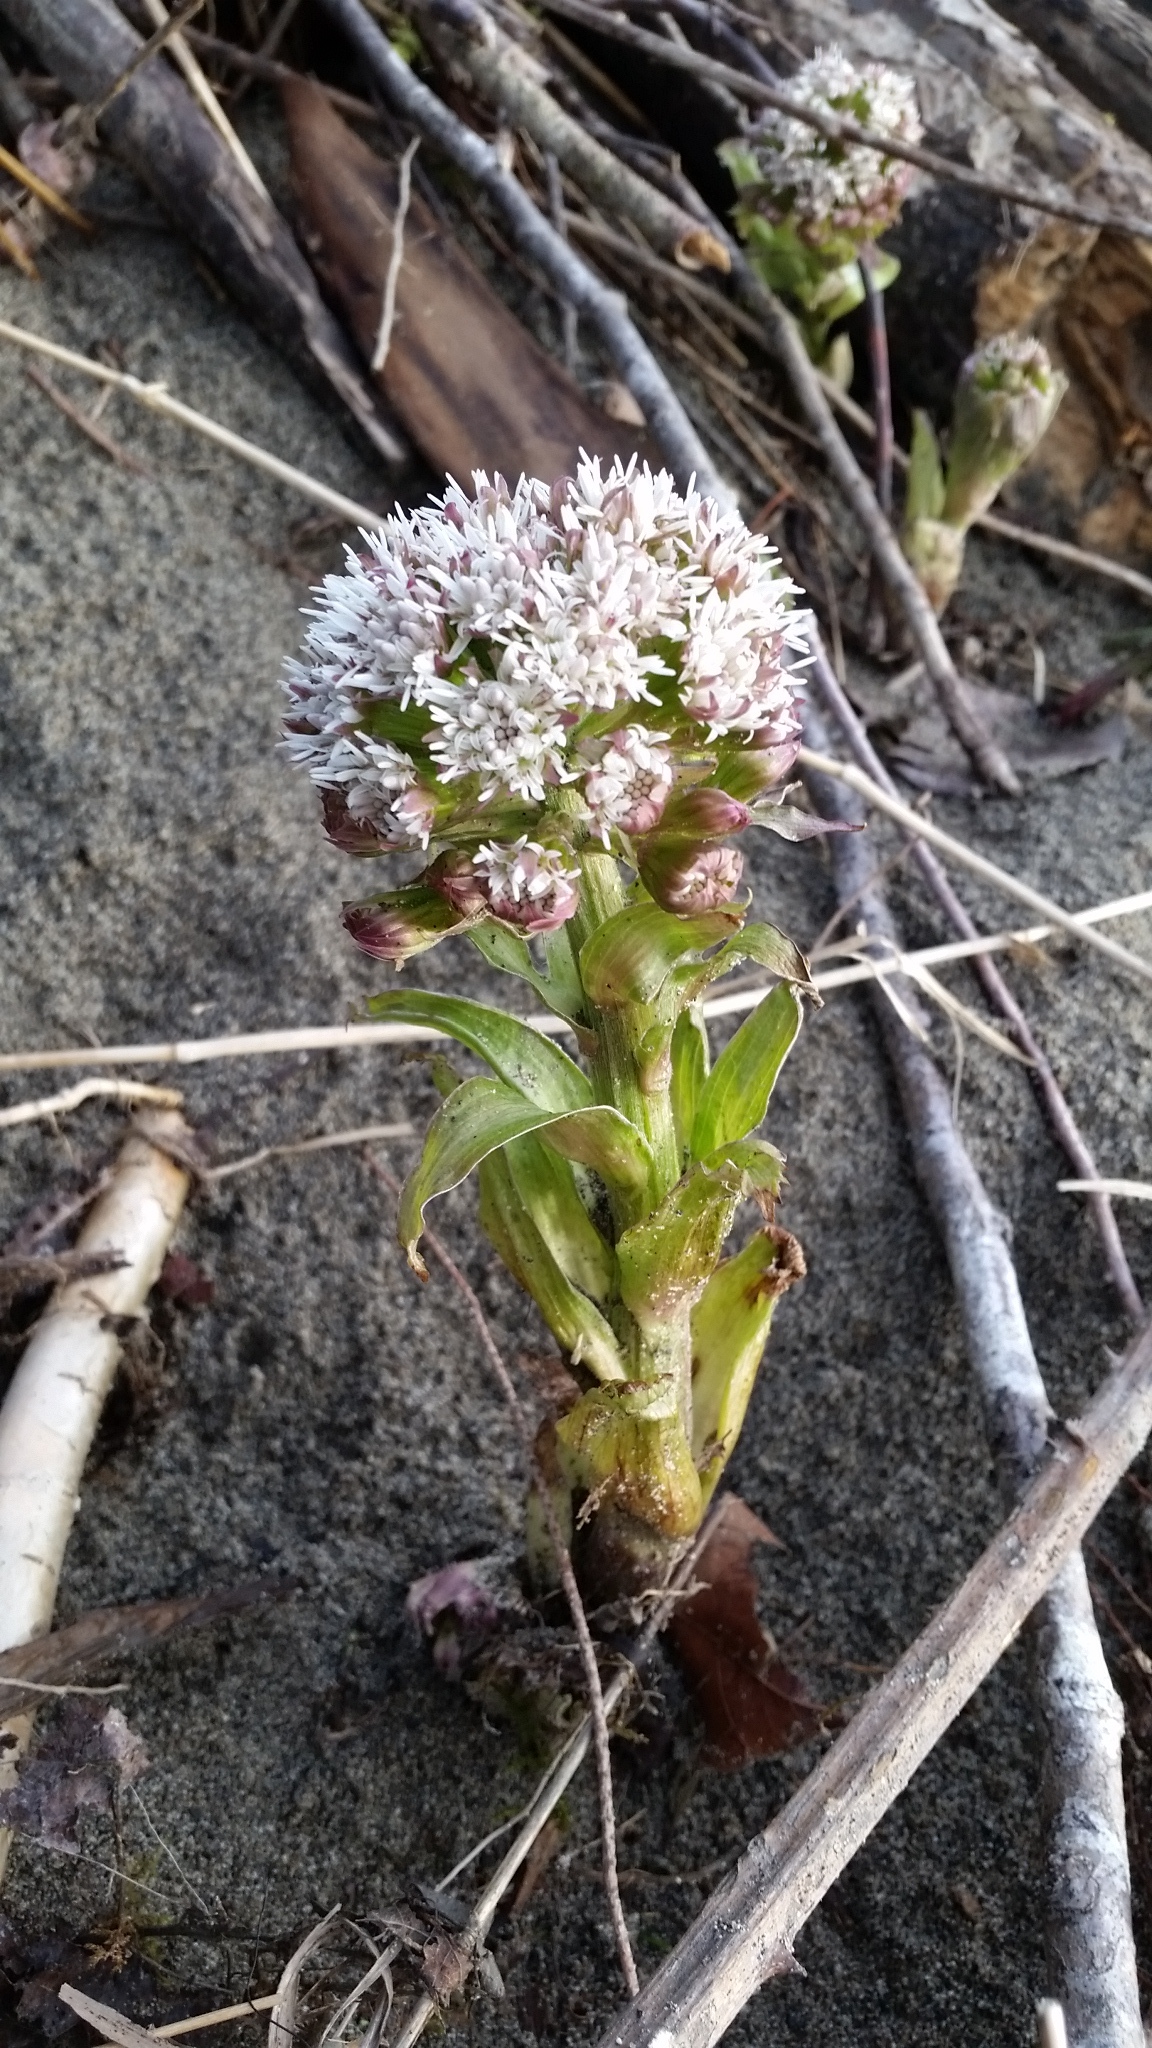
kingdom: Plantae
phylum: Tracheophyta
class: Magnoliopsida
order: Asterales
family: Asteraceae
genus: Petasites
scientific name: Petasites frigidus
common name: Arctic butterbur
